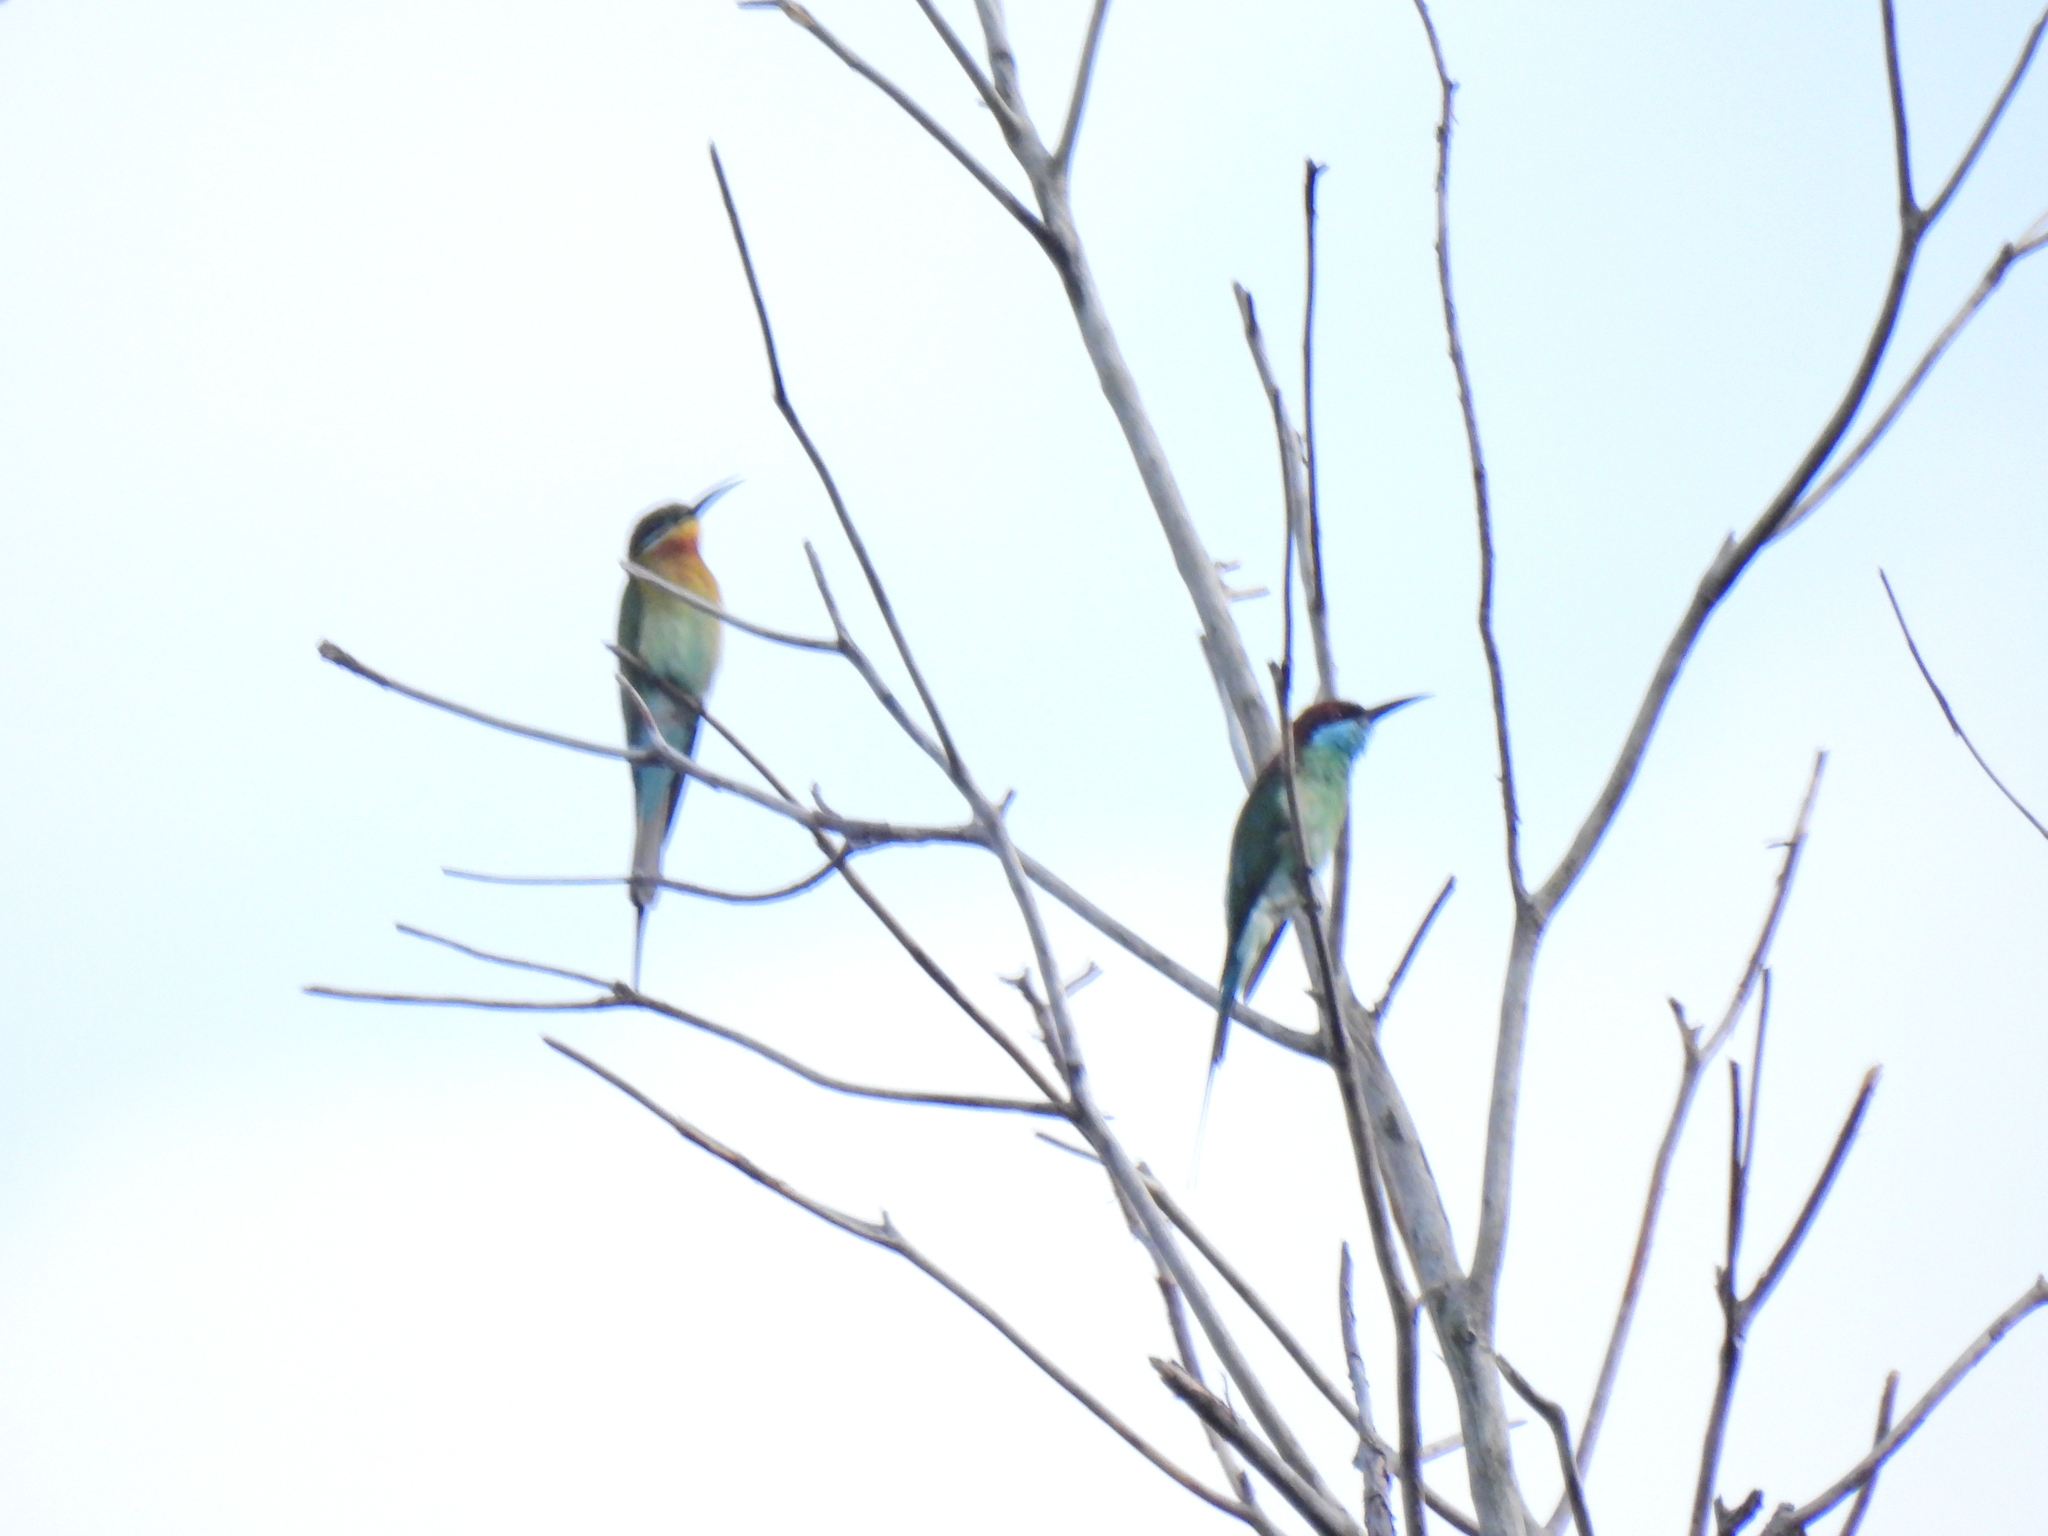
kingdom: Animalia
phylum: Chordata
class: Aves
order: Coraciiformes
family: Meropidae
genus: Merops
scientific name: Merops philippinus
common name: Blue-tailed bee-eater
